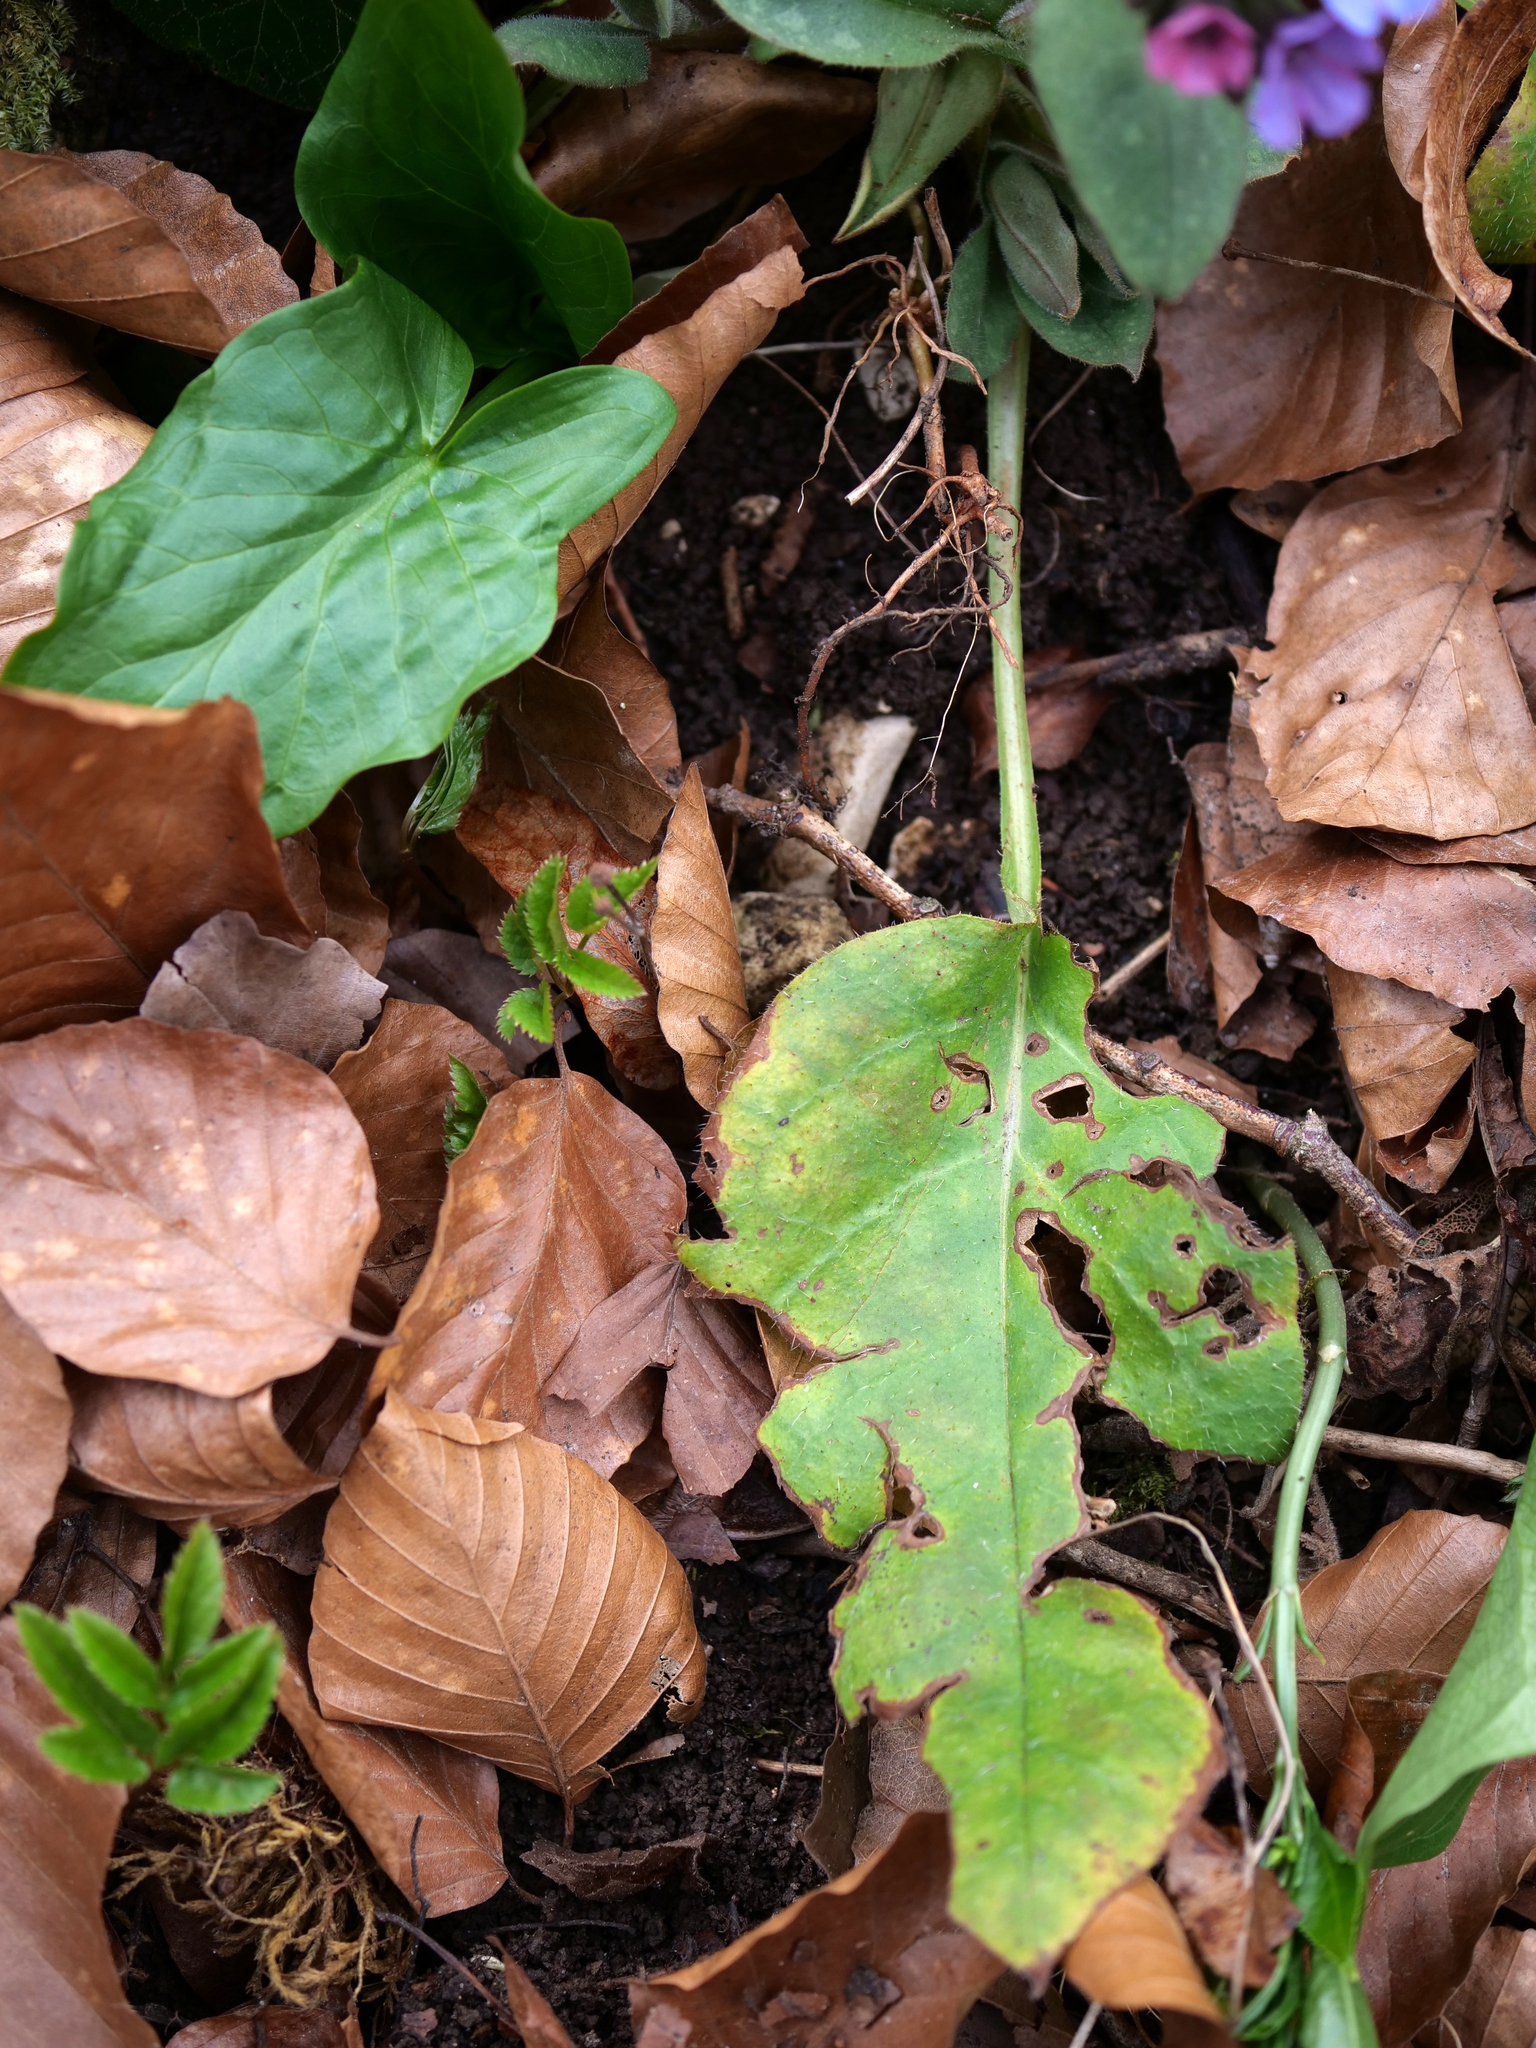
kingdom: Plantae
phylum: Tracheophyta
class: Magnoliopsida
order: Boraginales
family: Boraginaceae
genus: Pulmonaria
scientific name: Pulmonaria obscura
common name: Suffolk lungwort
